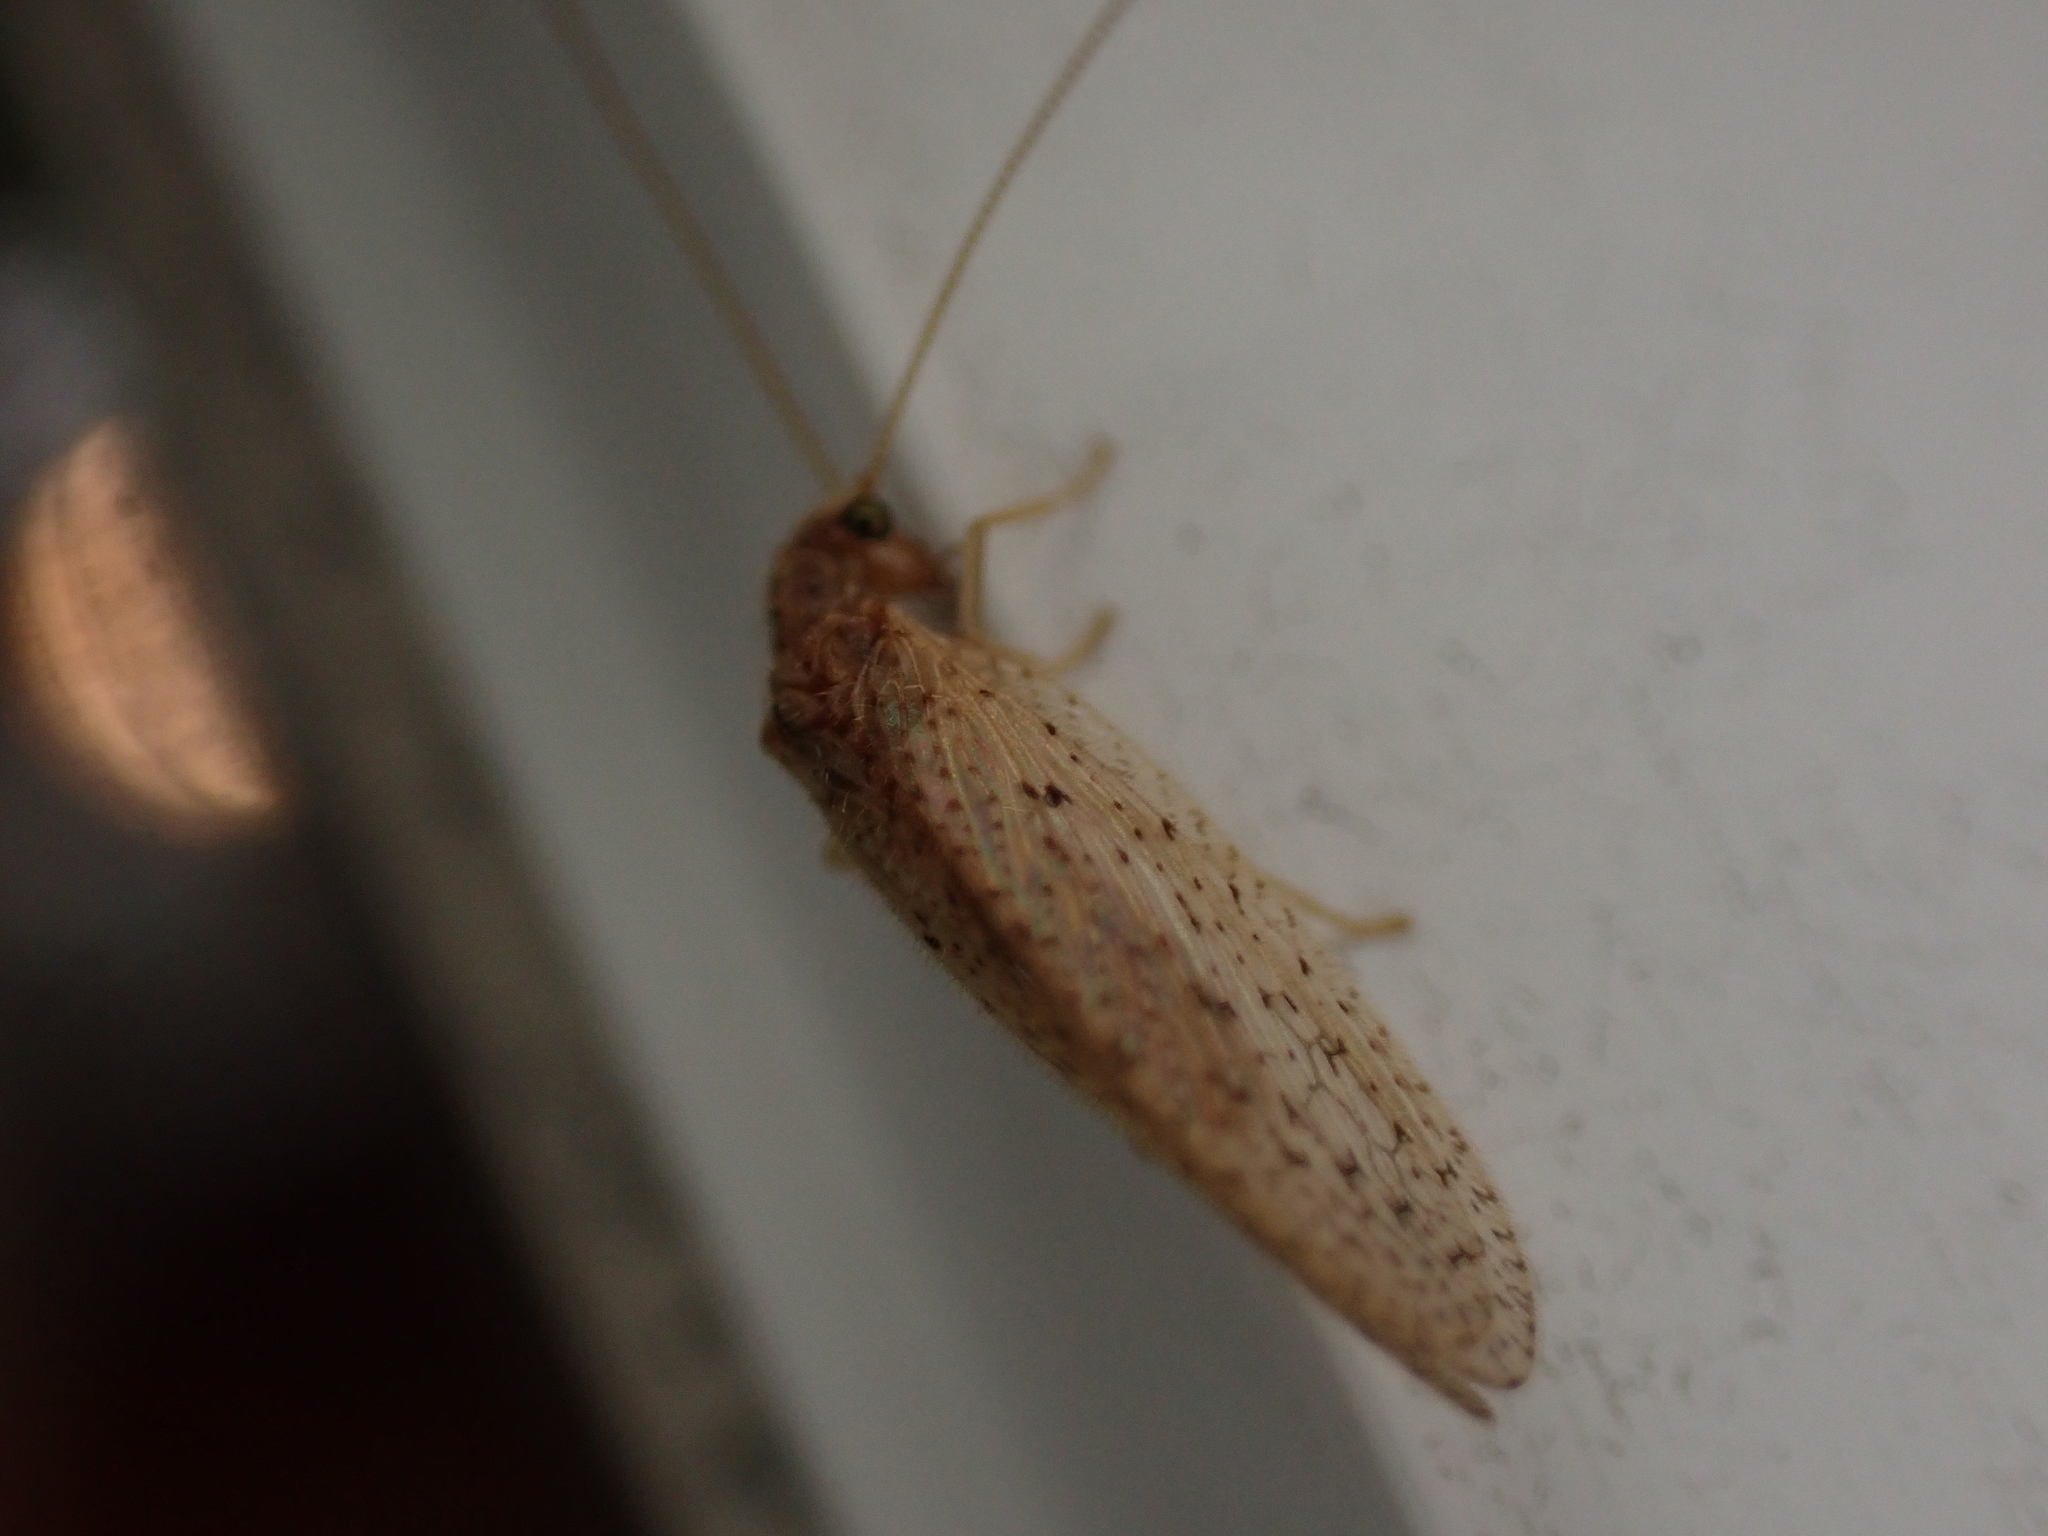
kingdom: Animalia
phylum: Arthropoda
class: Insecta
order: Neuroptera
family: Hemerobiidae
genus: Micromus
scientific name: Micromus subanticus
